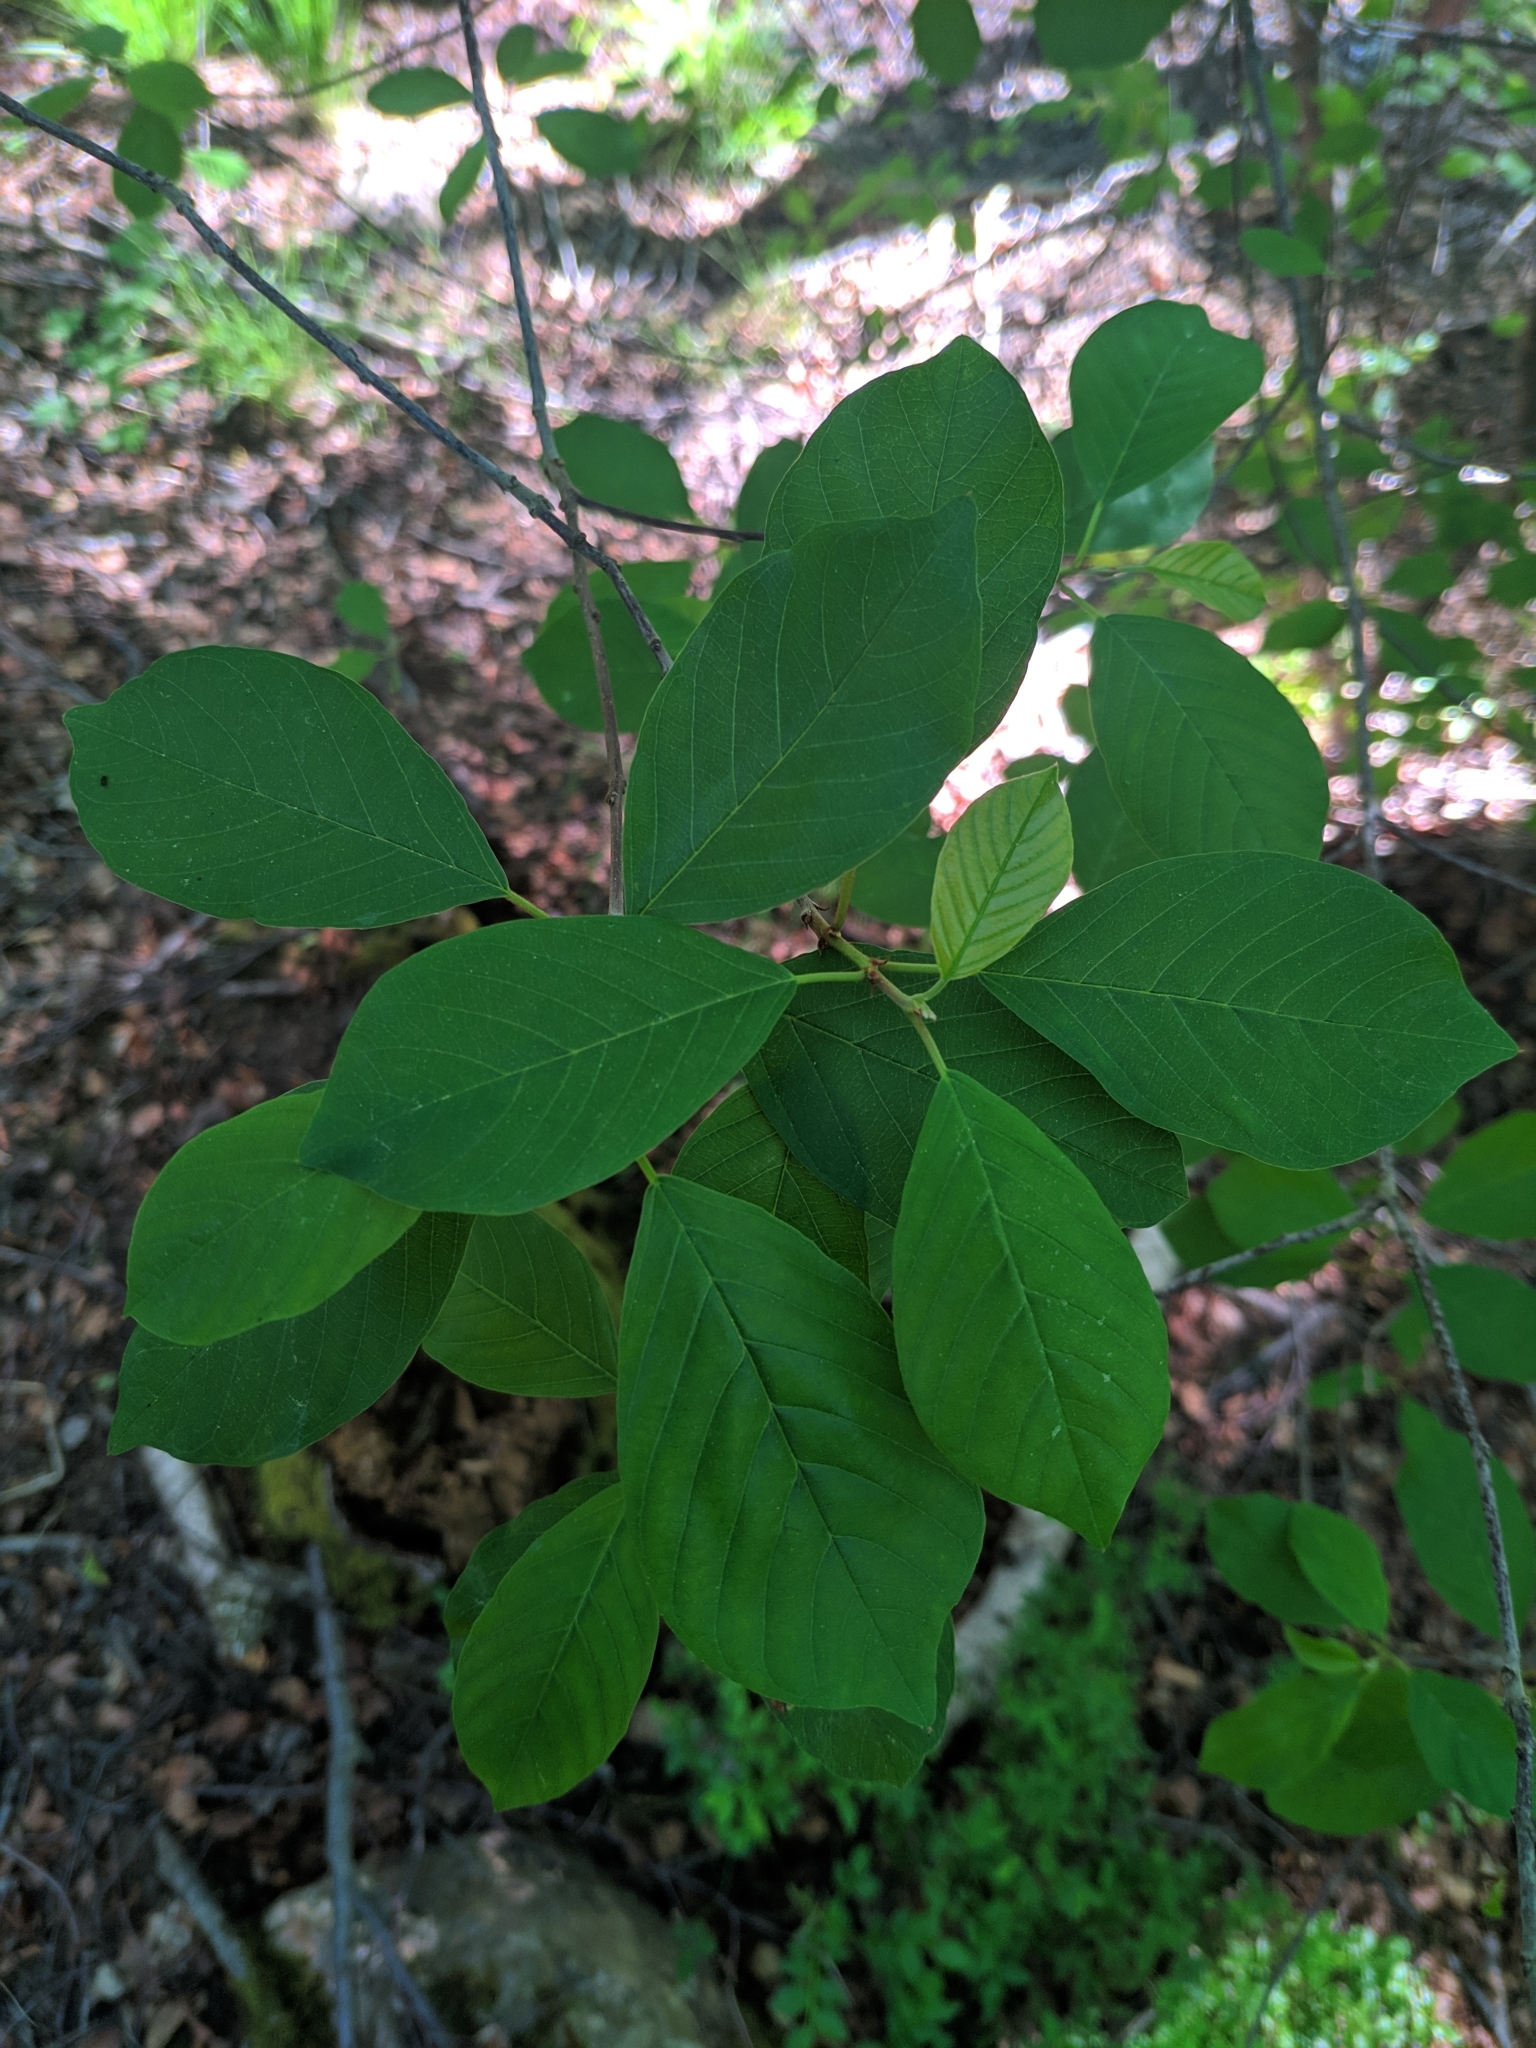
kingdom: Plantae
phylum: Tracheophyta
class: Magnoliopsida
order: Rosales
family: Rhamnaceae
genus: Frangula
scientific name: Frangula alnus
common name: Alder buckthorn
